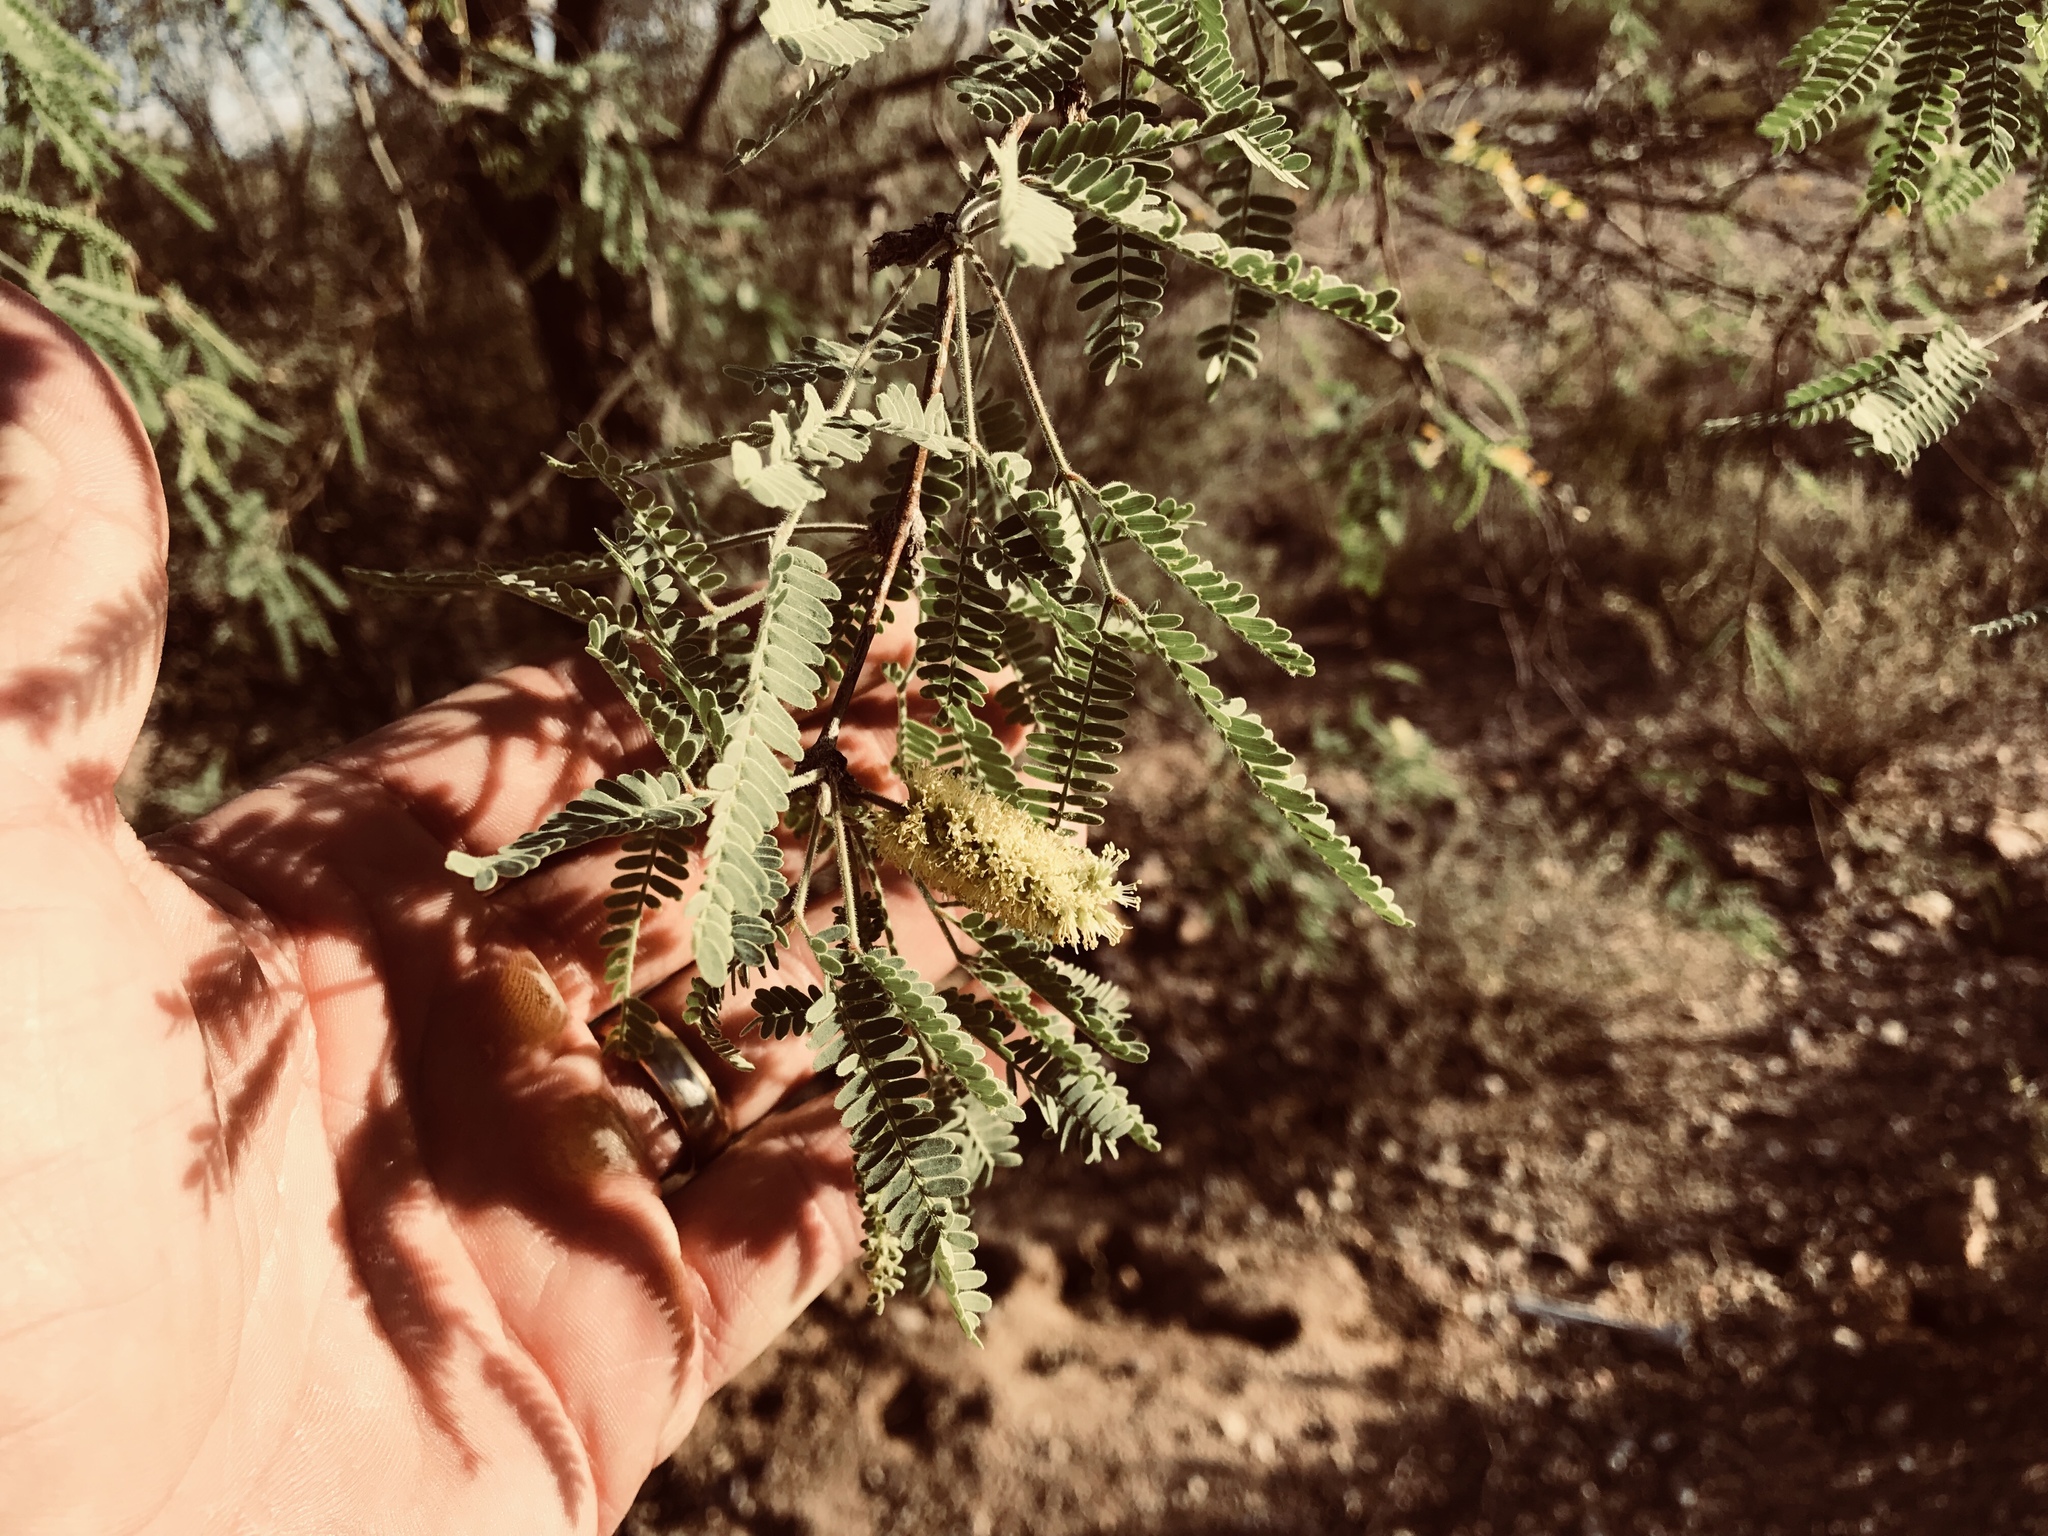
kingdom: Plantae
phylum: Tracheophyta
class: Magnoliopsida
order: Fabales
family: Fabaceae
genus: Prosopis
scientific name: Prosopis velutina
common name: Velvet mesquite
